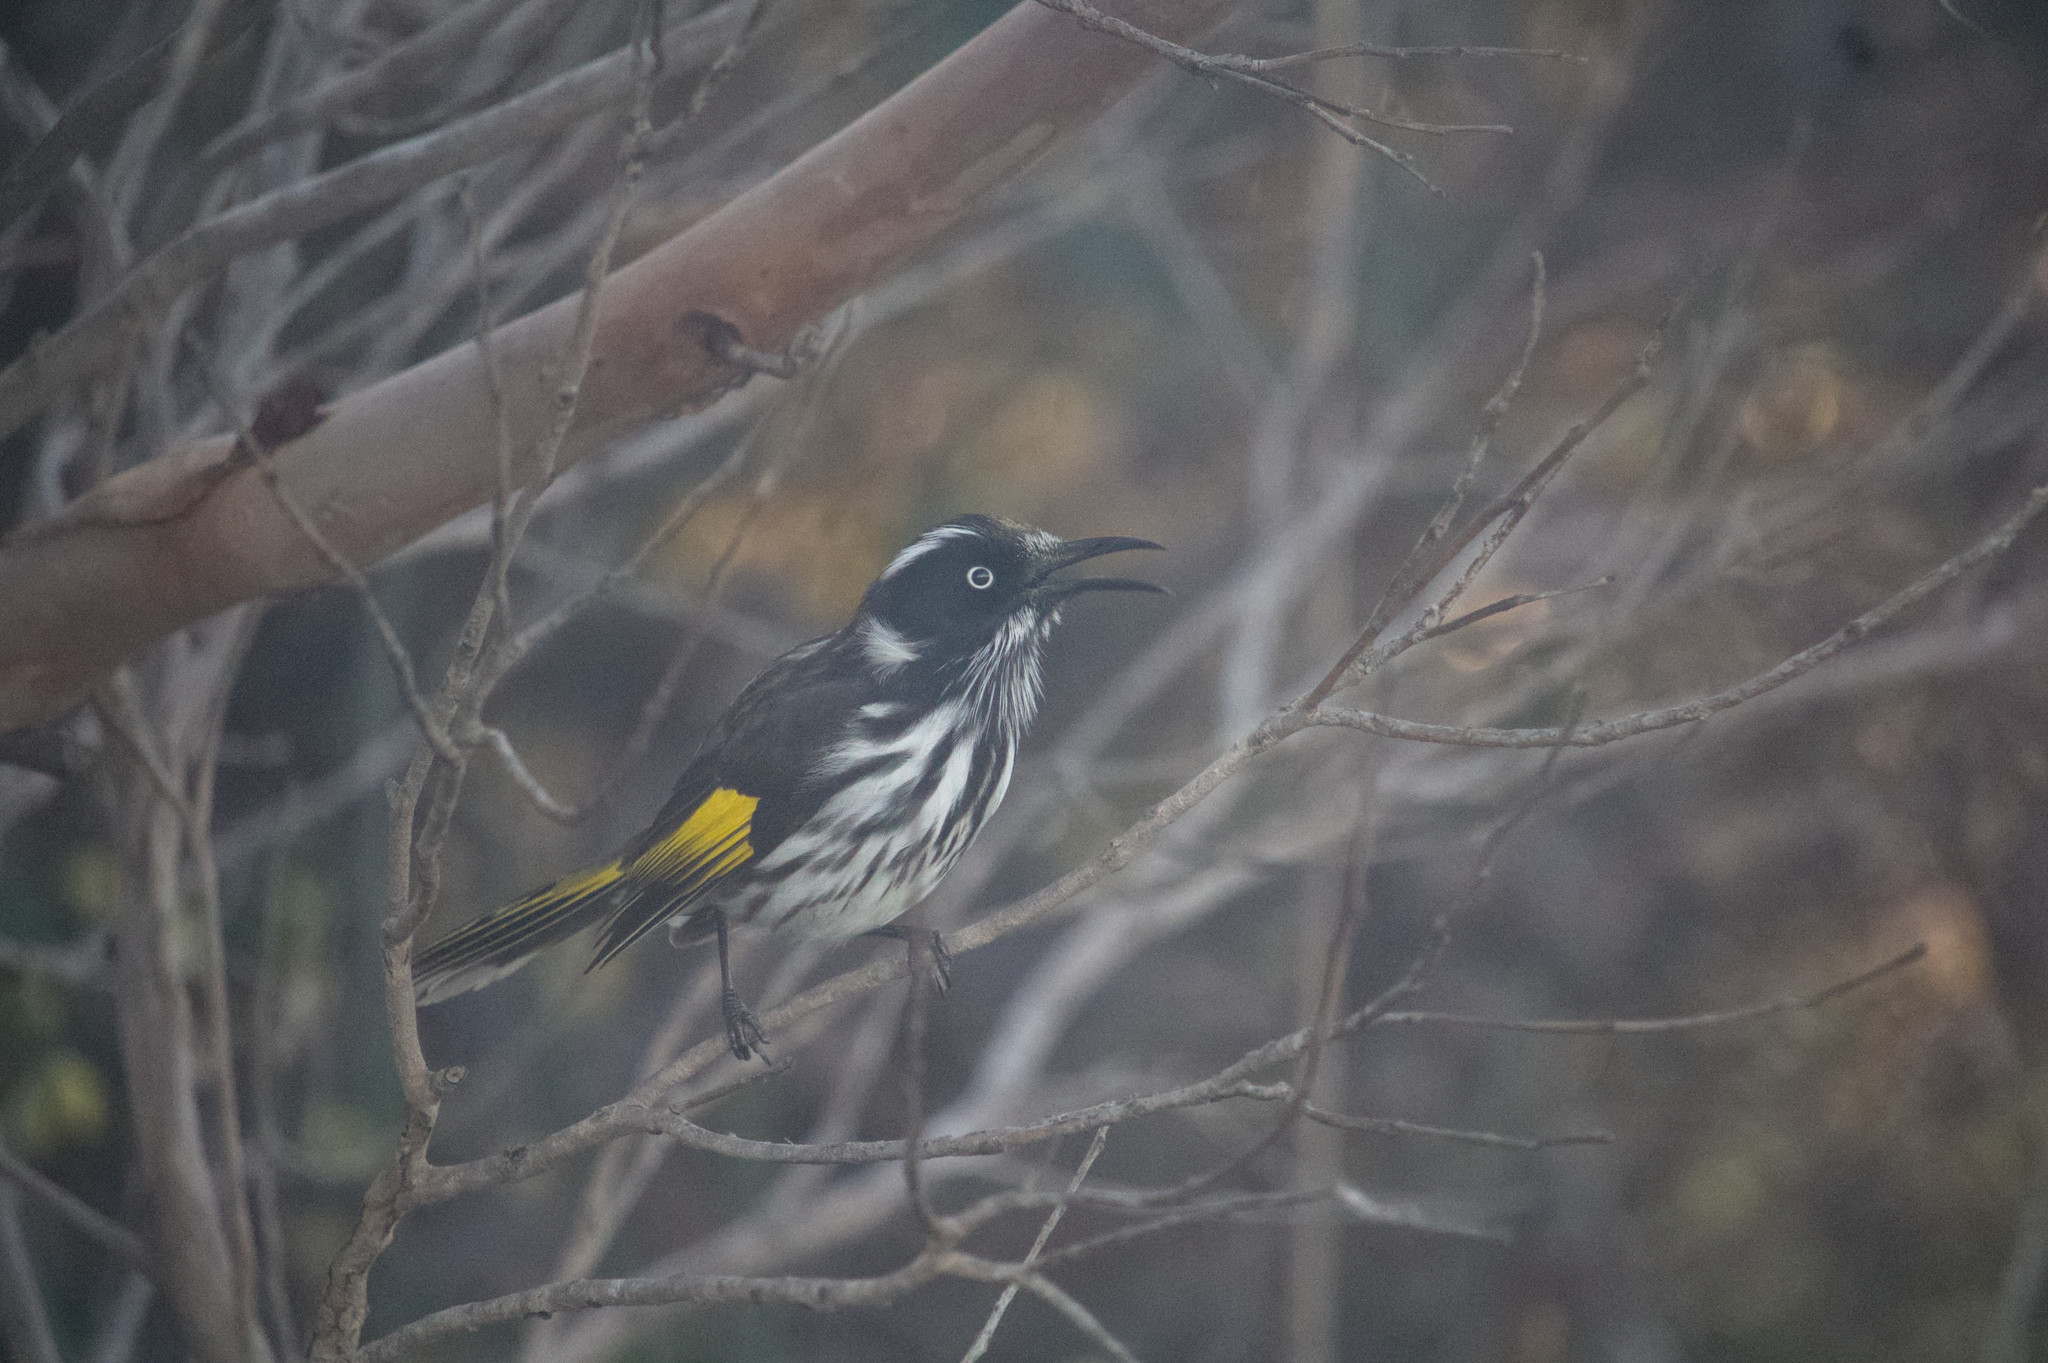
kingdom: Animalia
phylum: Chordata
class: Aves
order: Passeriformes
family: Meliphagidae
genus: Phylidonyris
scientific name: Phylidonyris novaehollandiae
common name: New holland honeyeater
